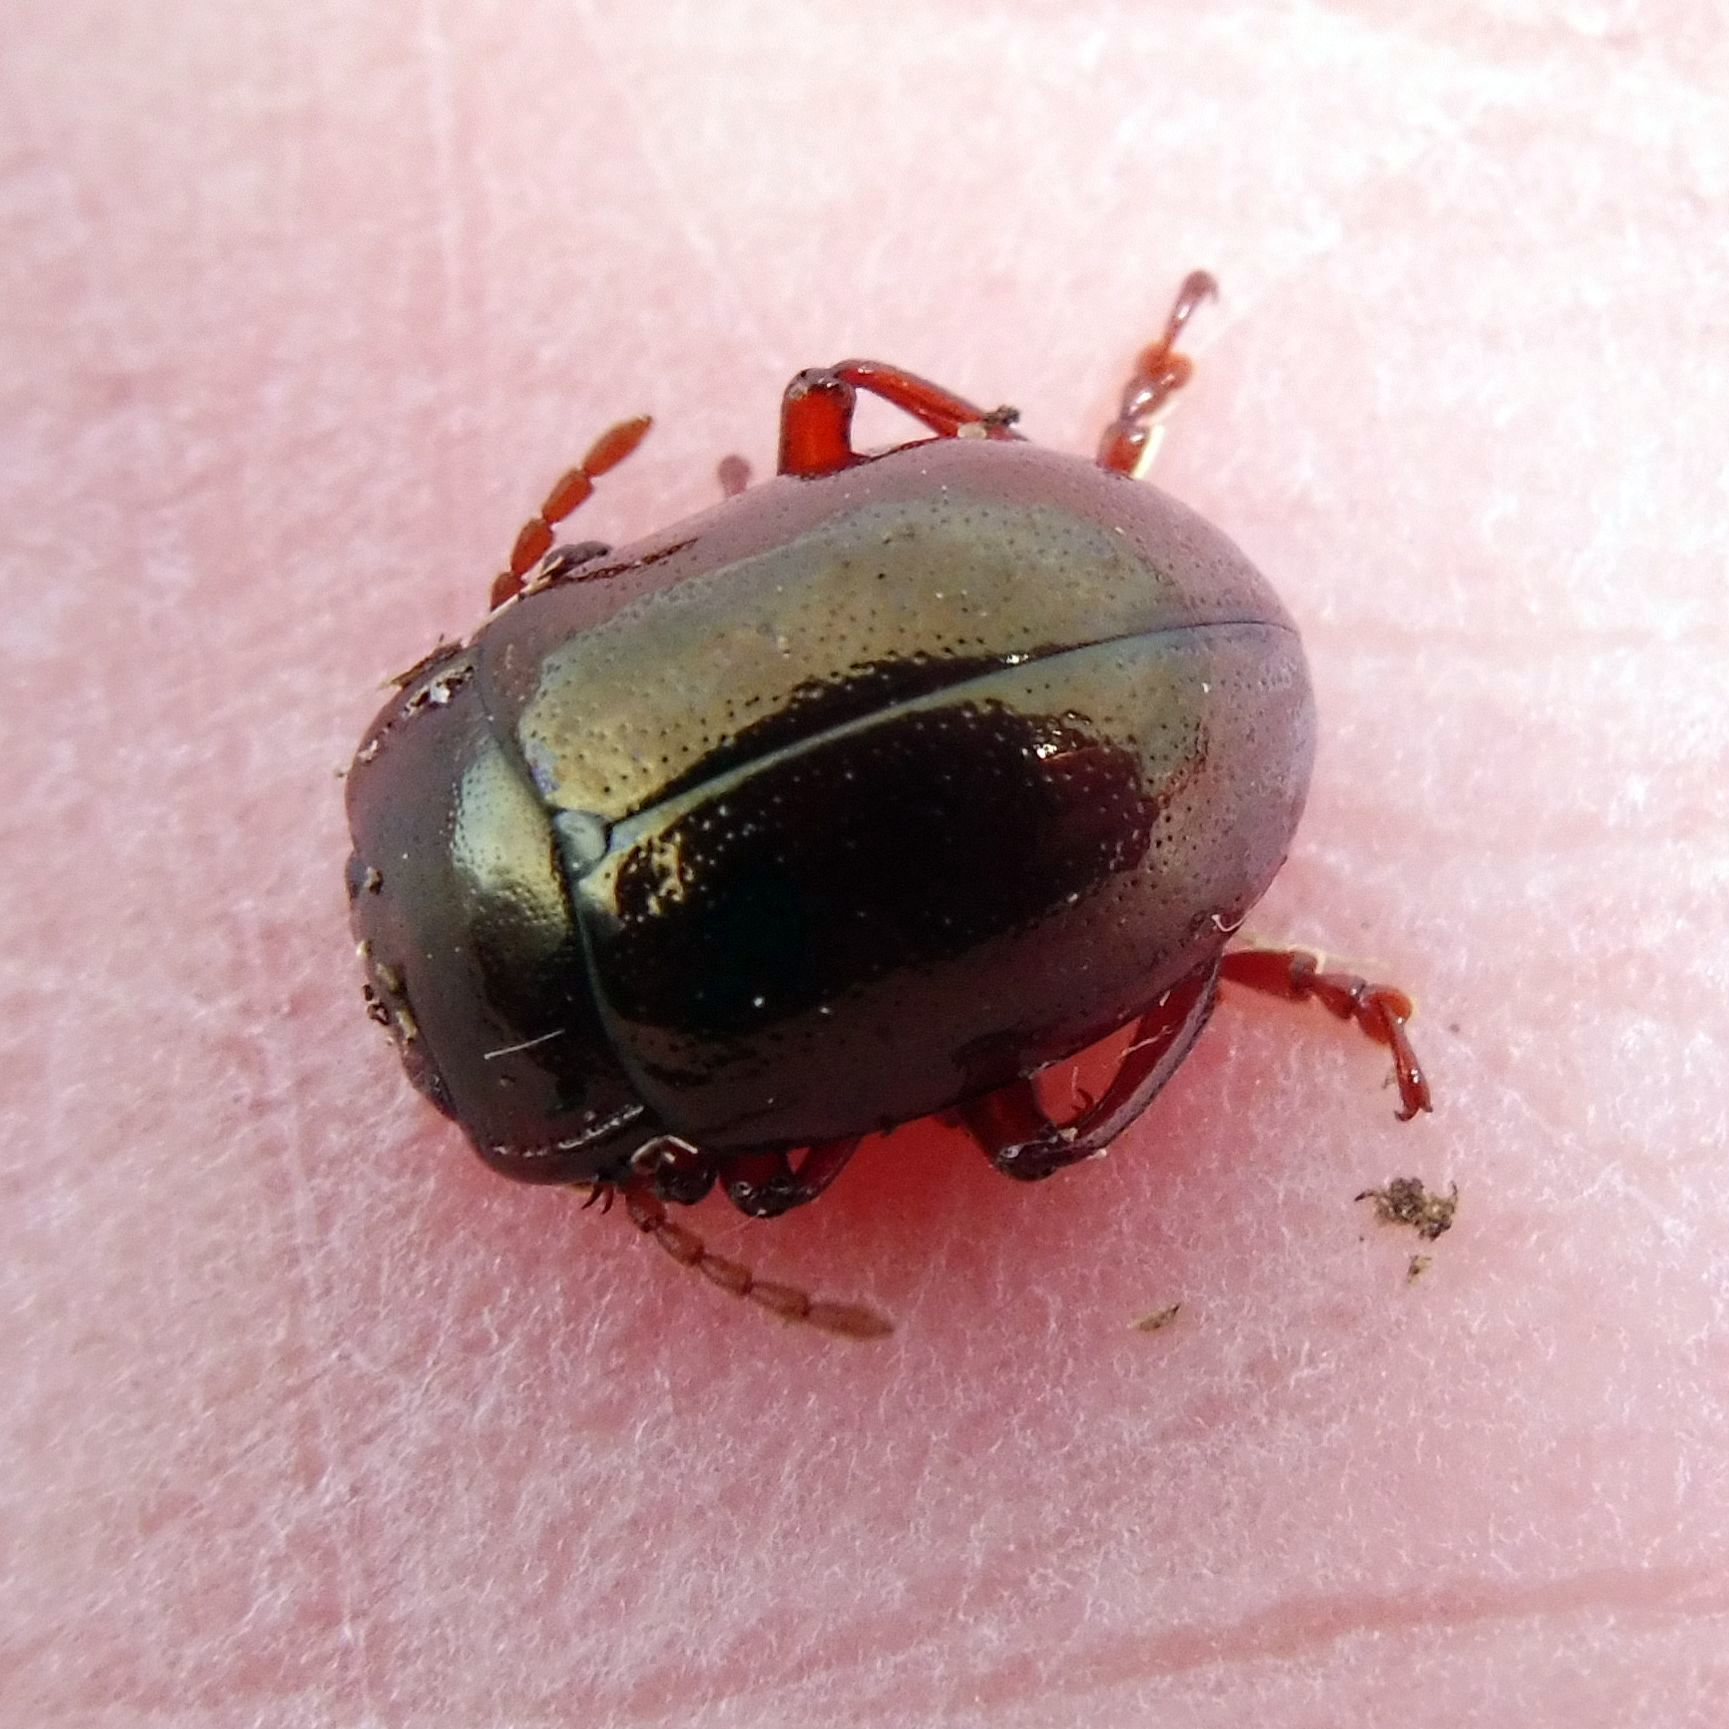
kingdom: Animalia
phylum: Arthropoda
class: Insecta
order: Coleoptera
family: Chrysomelidae
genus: Chrysolina
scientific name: Chrysolina staphylaea
